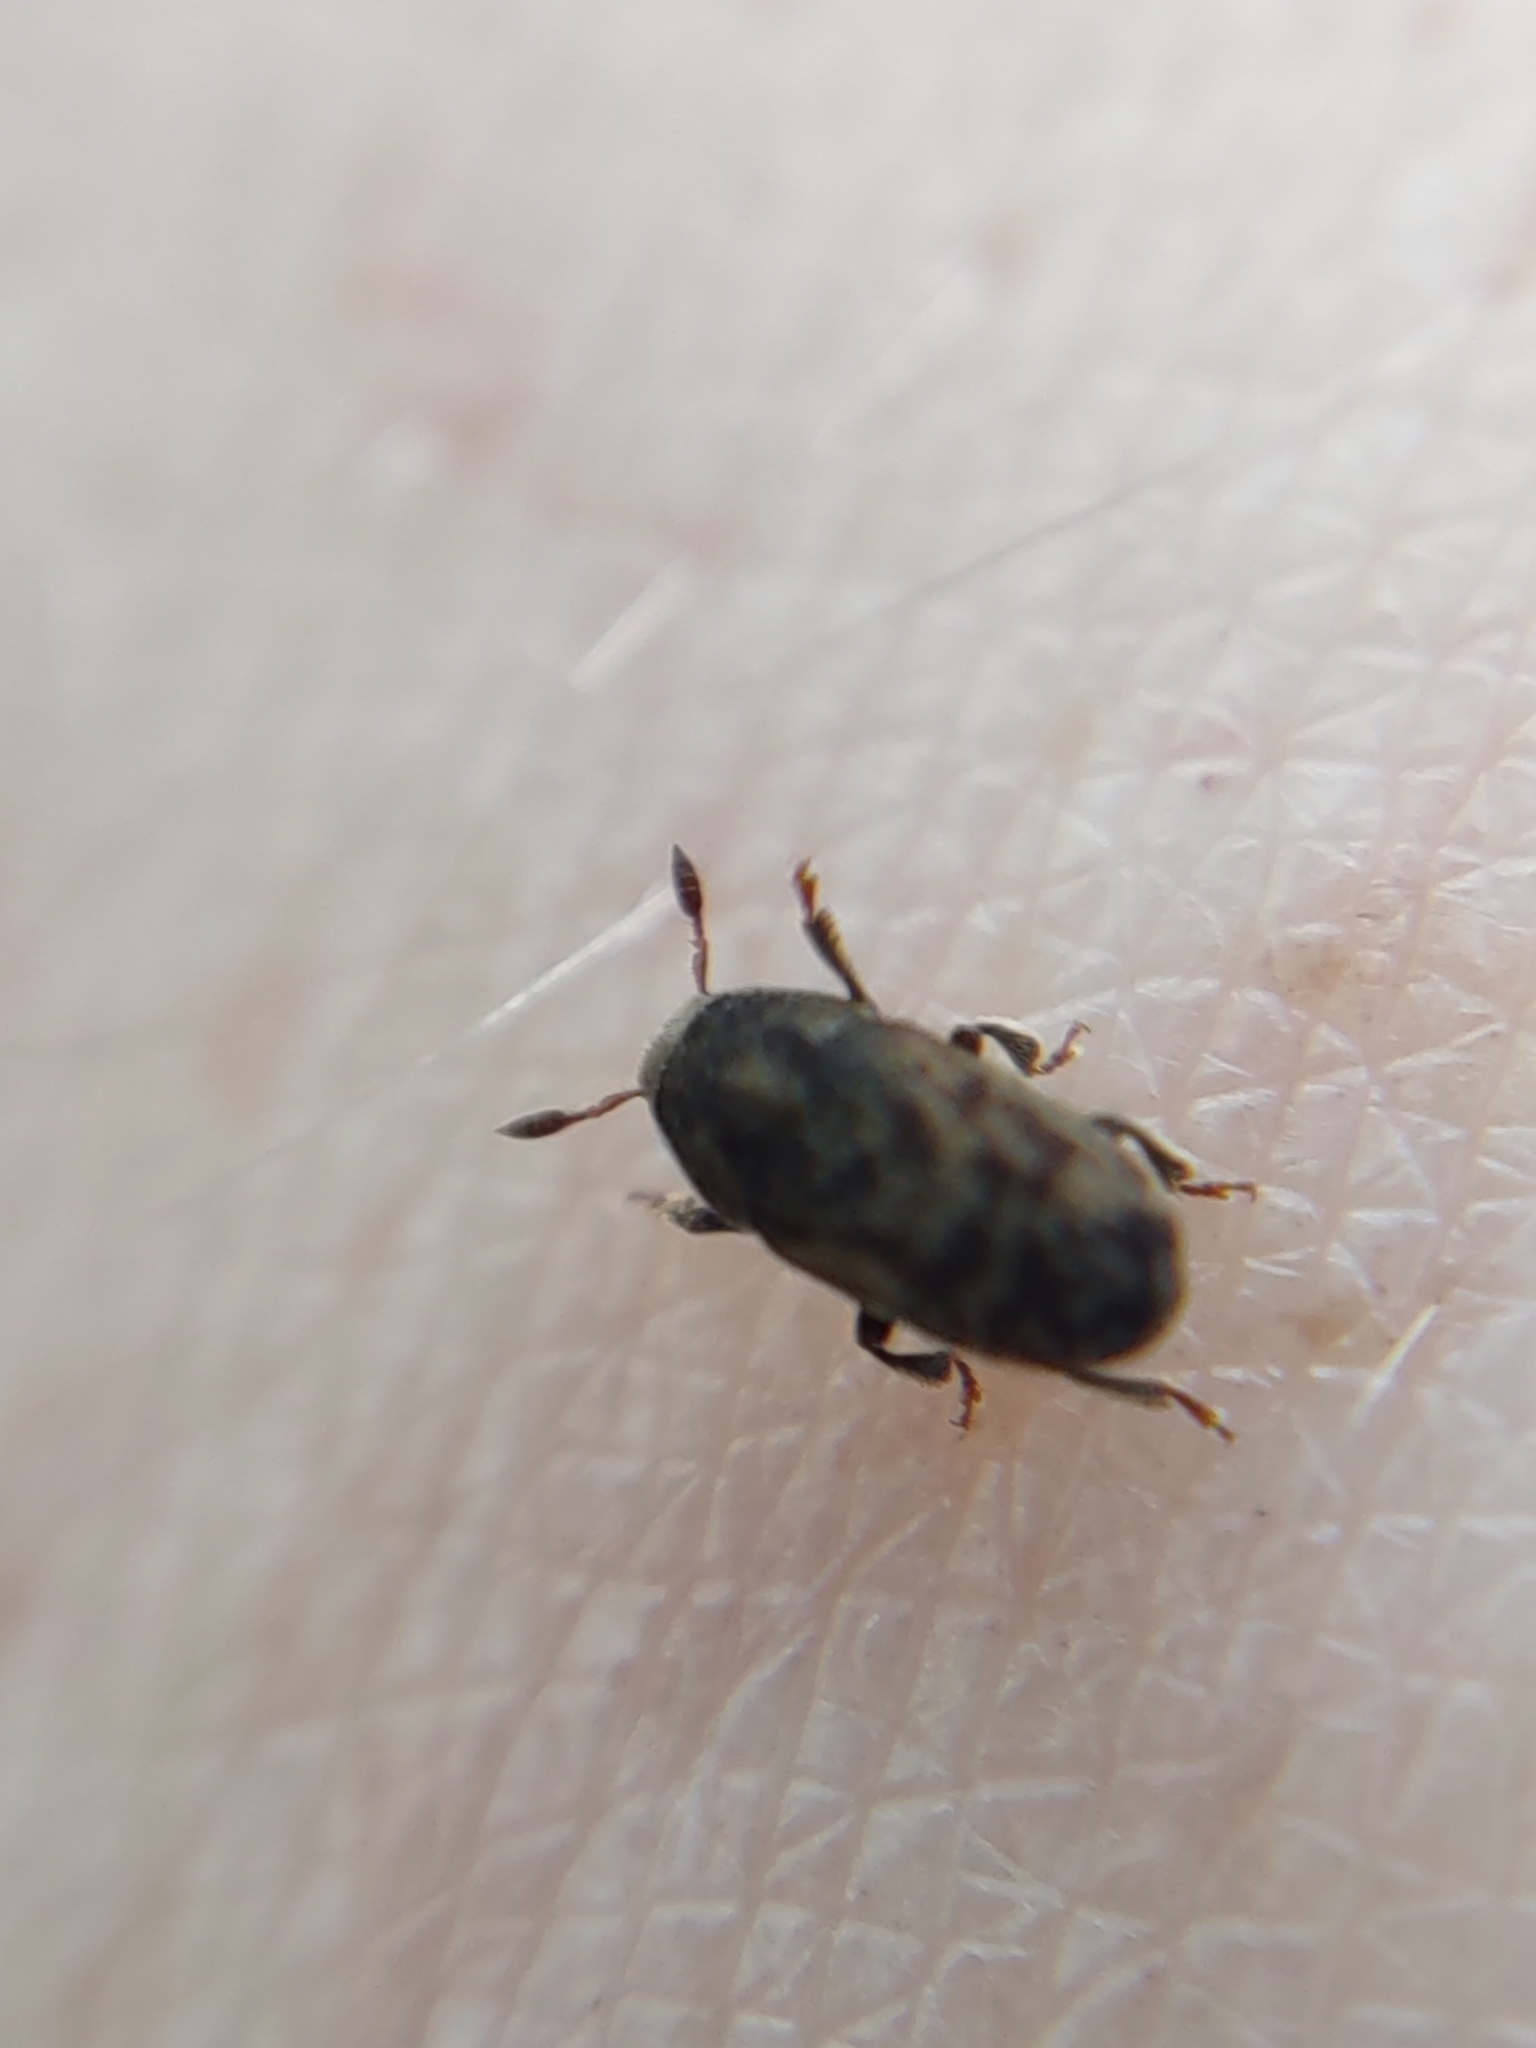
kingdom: Animalia
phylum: Arthropoda
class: Insecta
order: Coleoptera
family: Curculionidae
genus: Hylesinus
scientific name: Hylesinus varius
